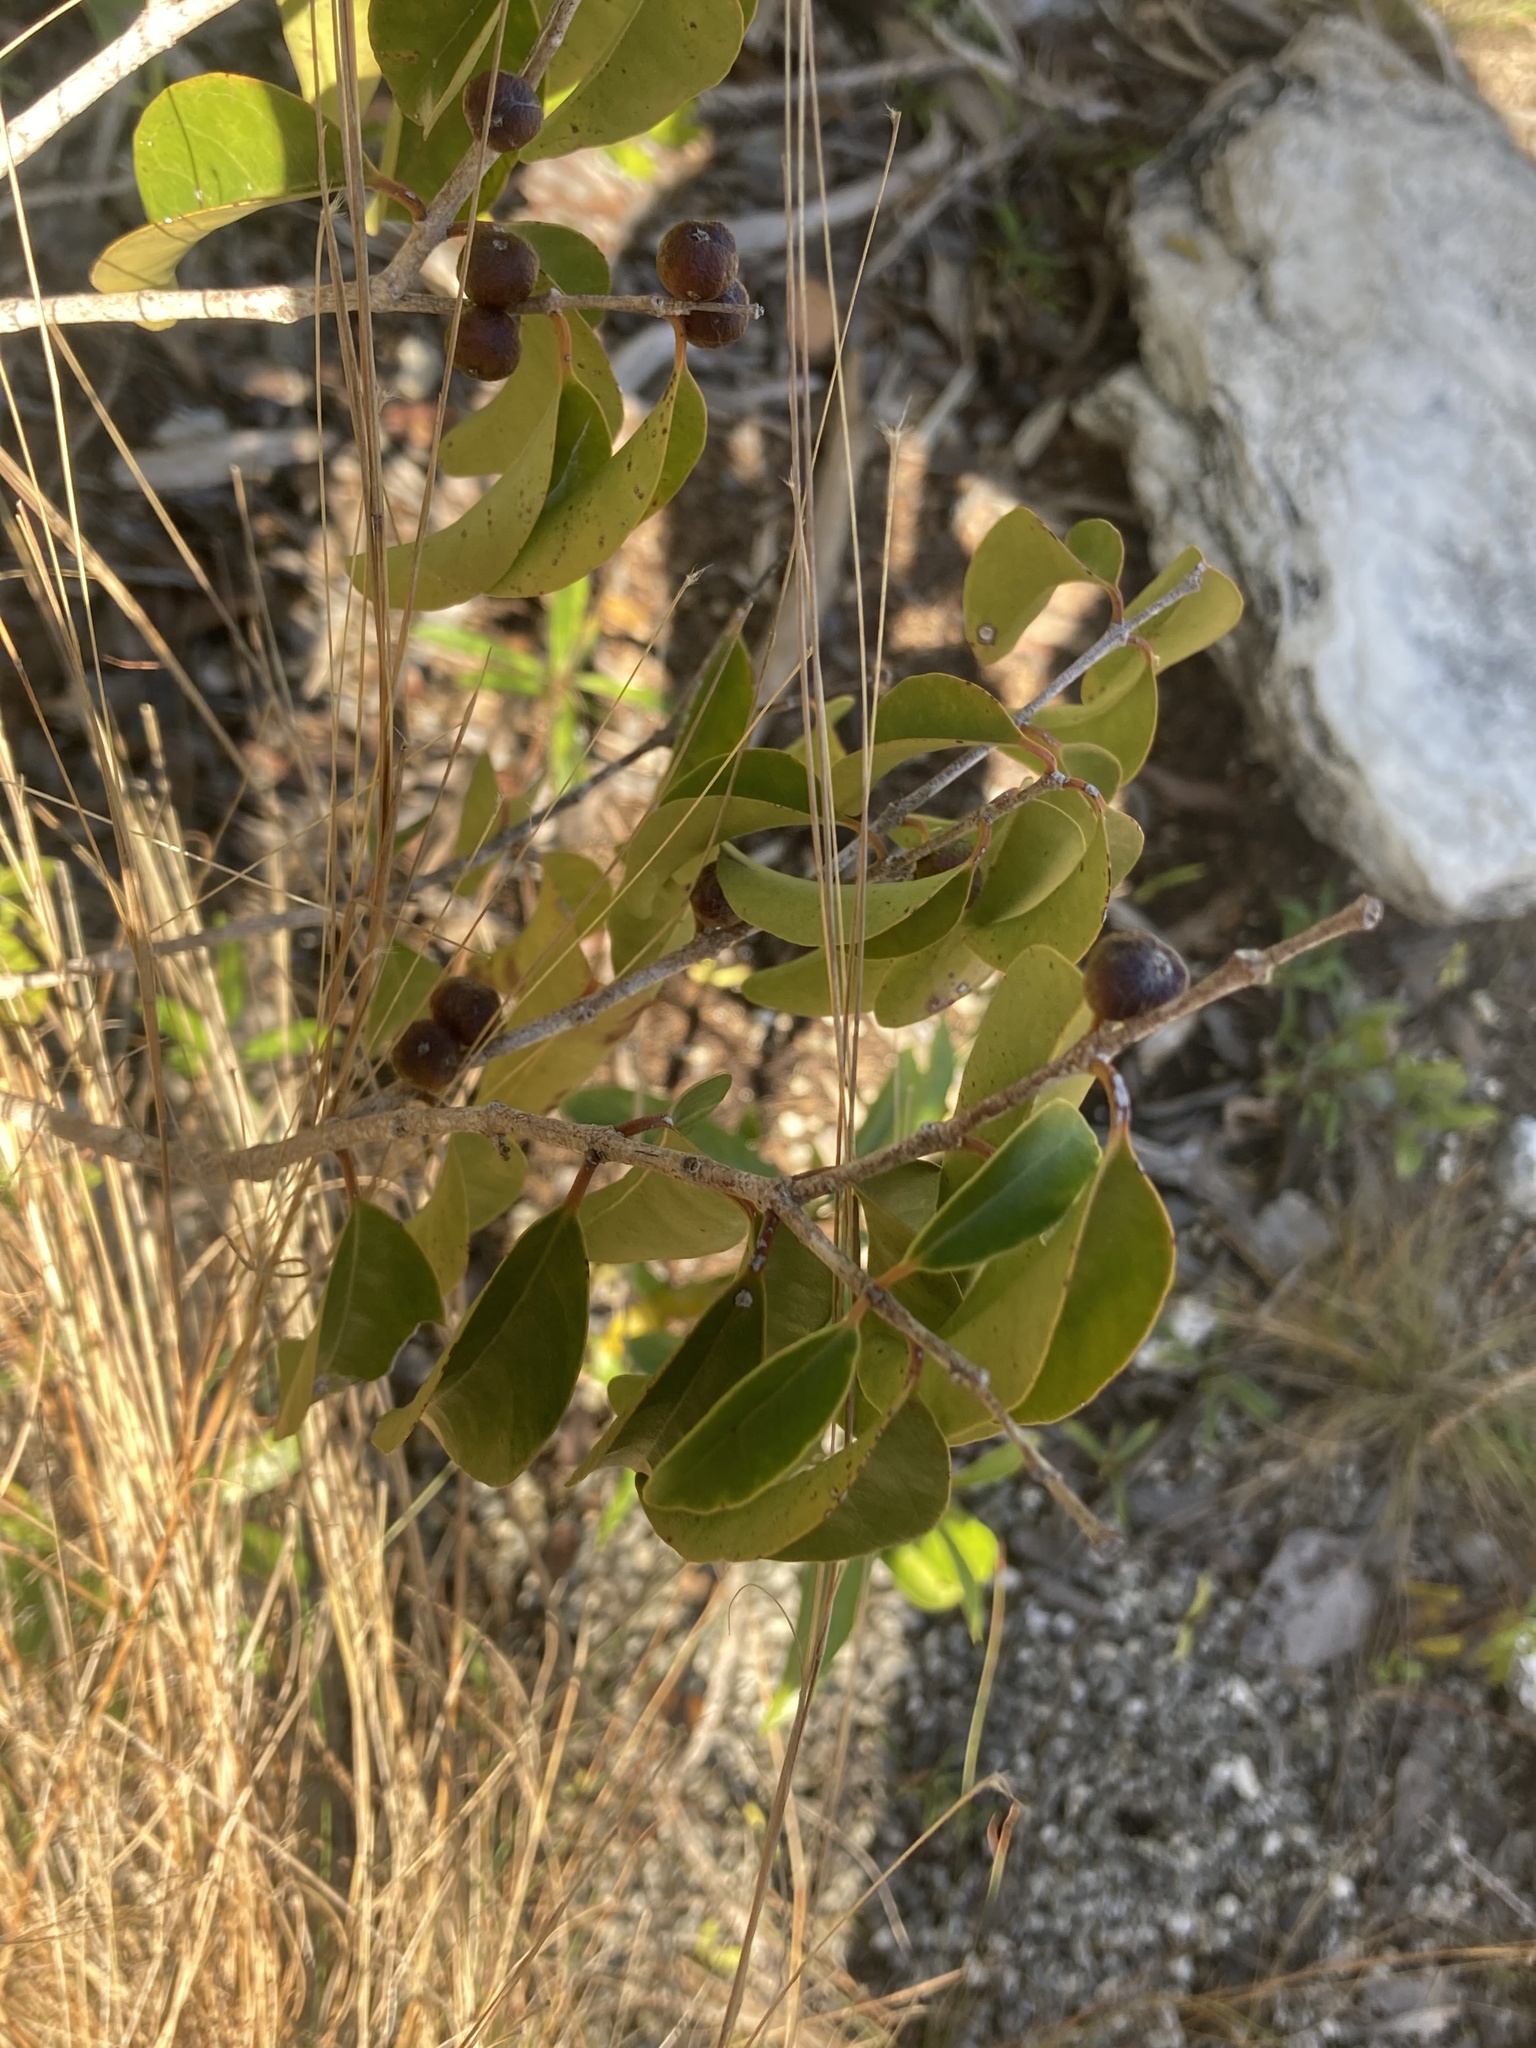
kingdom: Plantae
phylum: Tracheophyta
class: Magnoliopsida
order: Myrtales
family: Myrtaceae
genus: Eugenia
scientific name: Eugenia axillaris
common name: Choaky berry
